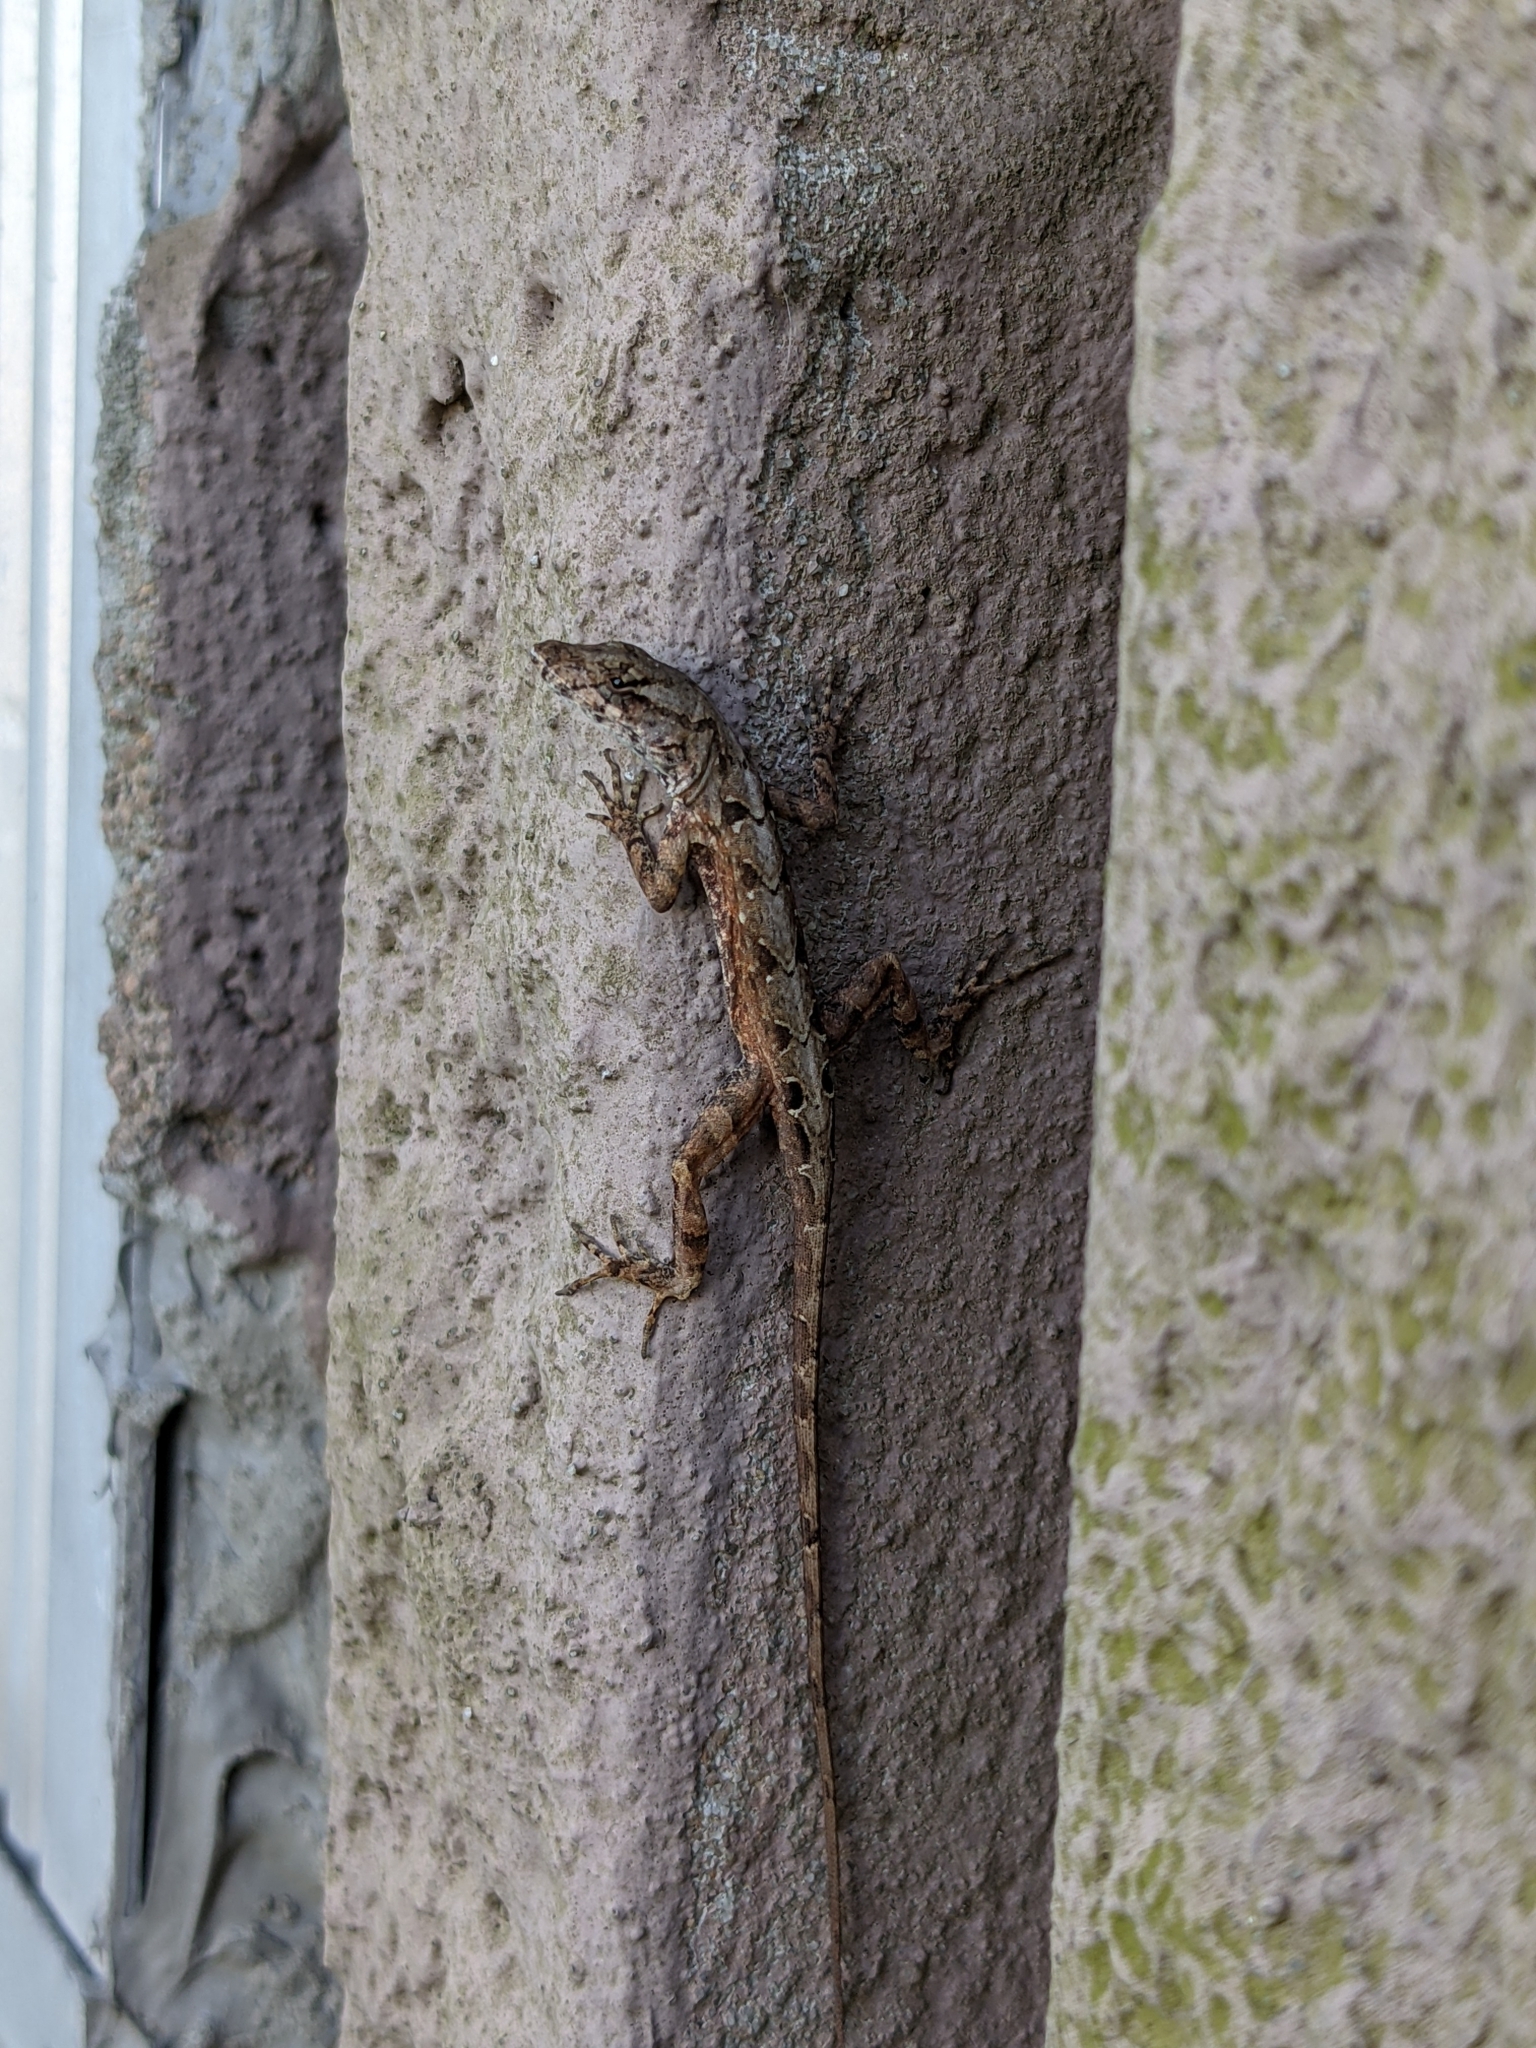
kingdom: Animalia
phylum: Chordata
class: Squamata
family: Dactyloidae
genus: Anolis
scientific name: Anolis sagrei
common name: Brown anole
